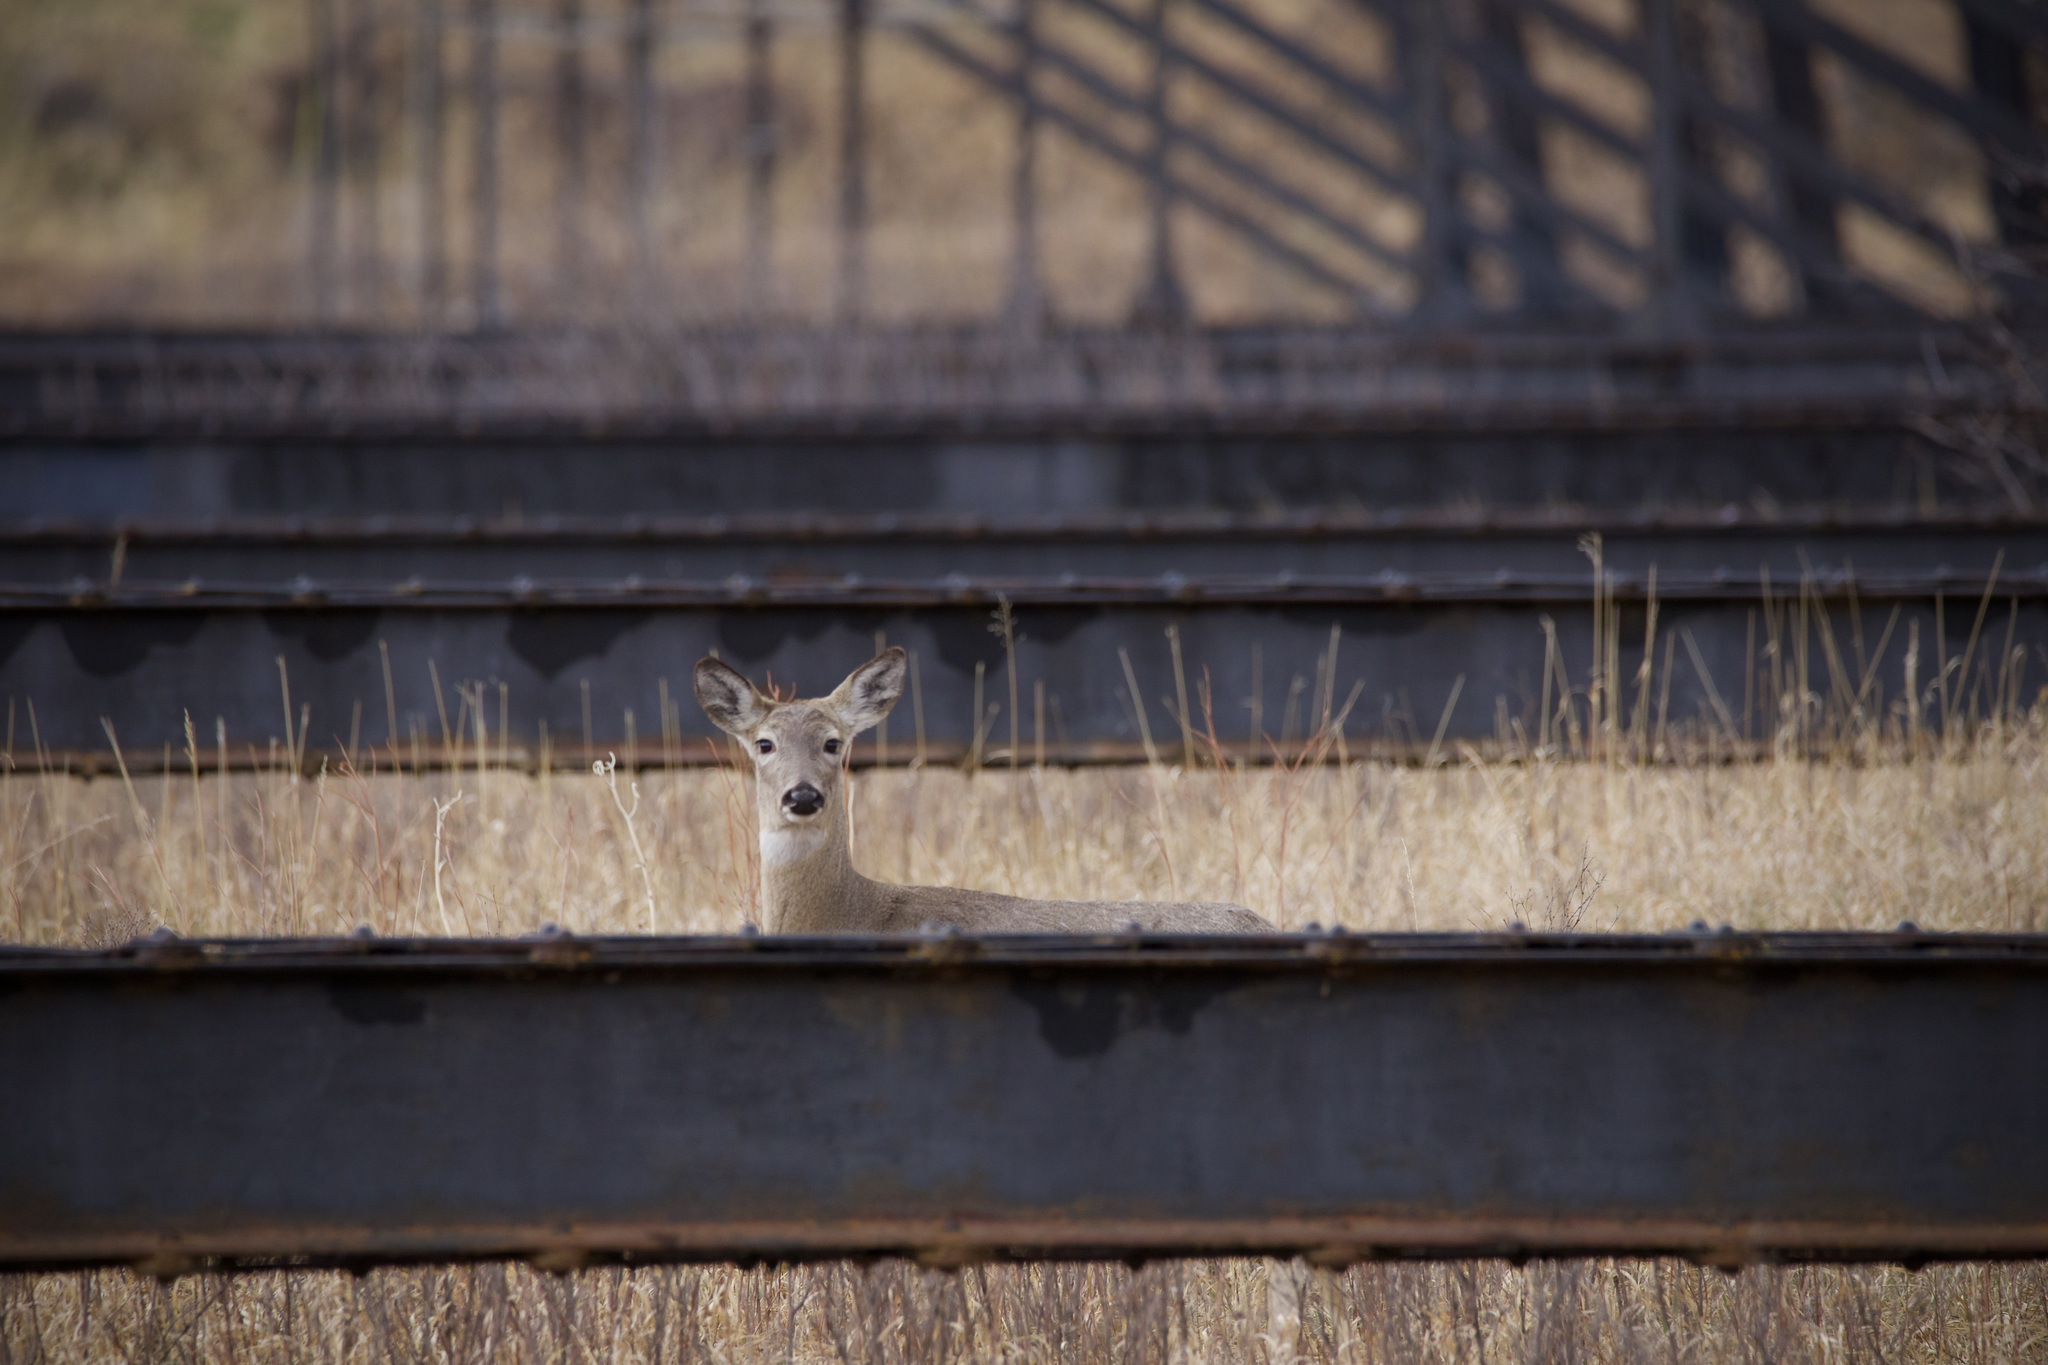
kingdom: Animalia
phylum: Chordata
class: Mammalia
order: Artiodactyla
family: Cervidae
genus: Odocoileus
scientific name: Odocoileus virginianus
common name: White-tailed deer
